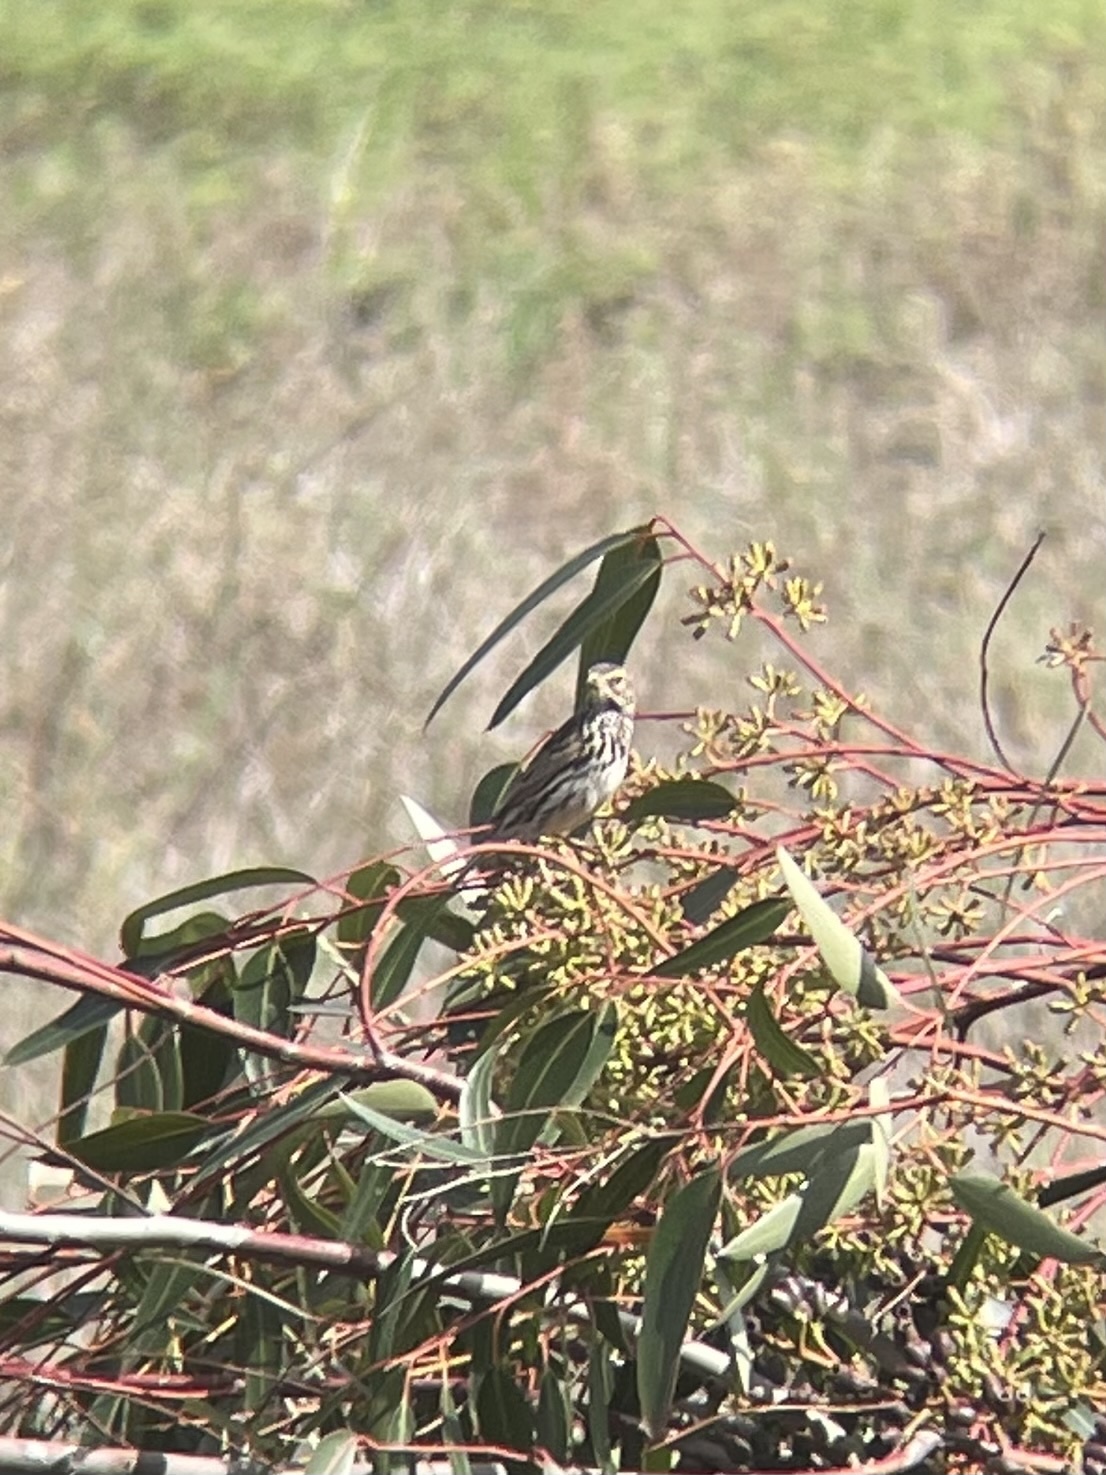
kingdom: Animalia
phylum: Chordata
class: Aves
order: Passeriformes
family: Passerellidae
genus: Passerculus
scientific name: Passerculus sandwichensis
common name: Savannah sparrow
